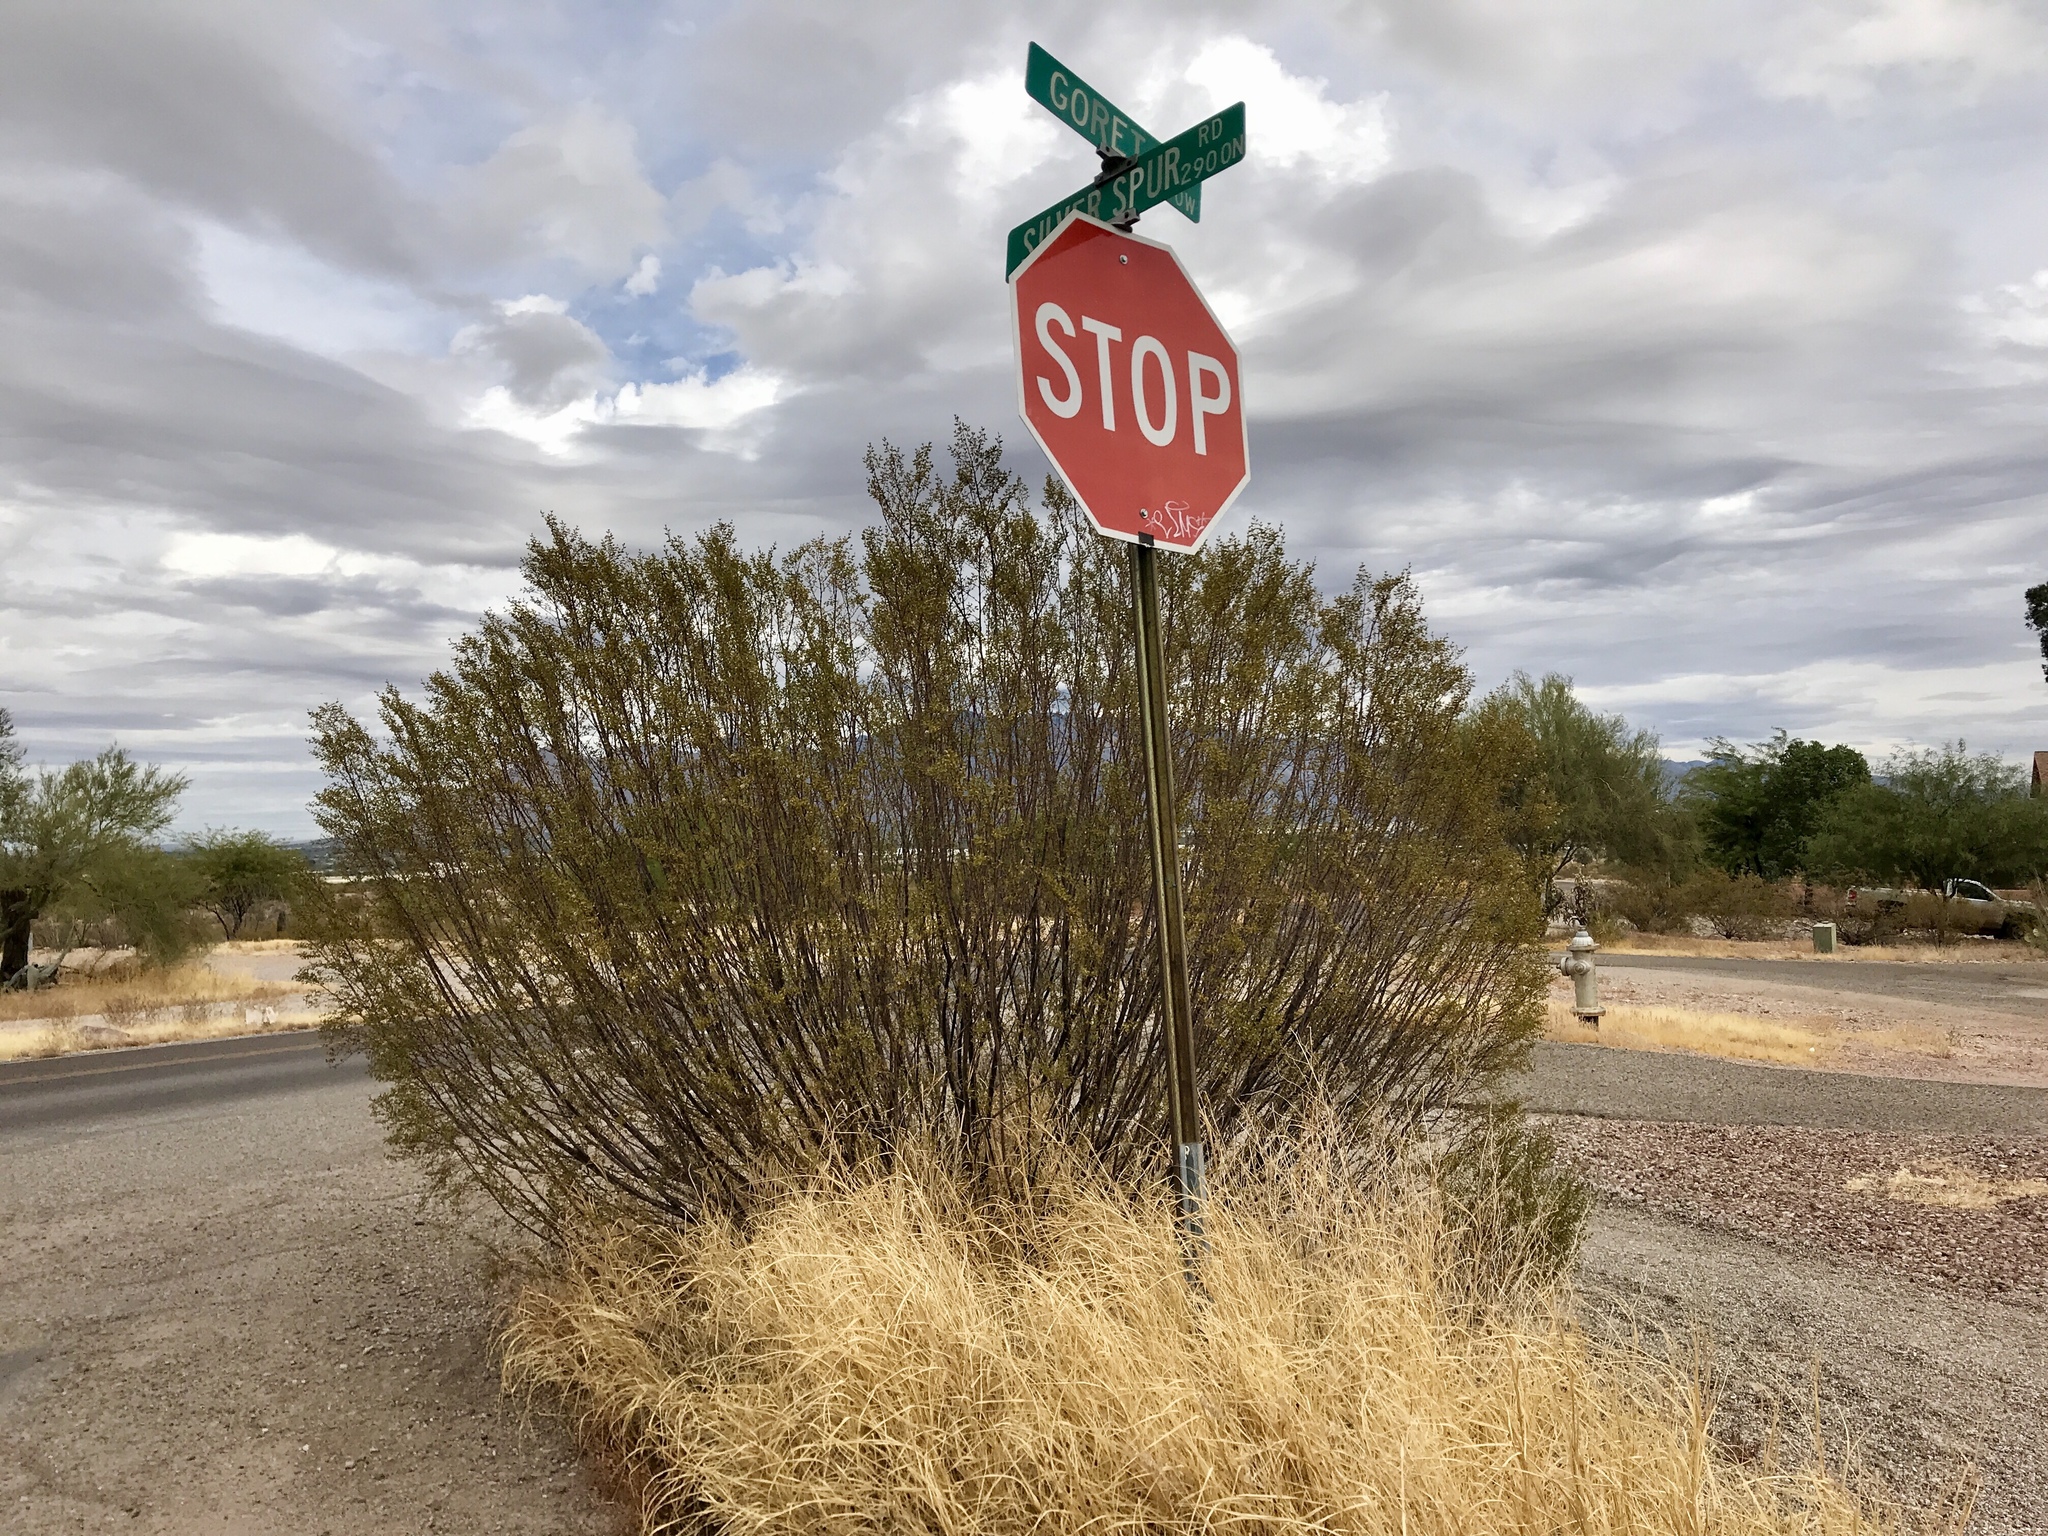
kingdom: Plantae
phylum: Tracheophyta
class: Magnoliopsida
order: Zygophyllales
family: Zygophyllaceae
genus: Larrea
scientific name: Larrea tridentata
